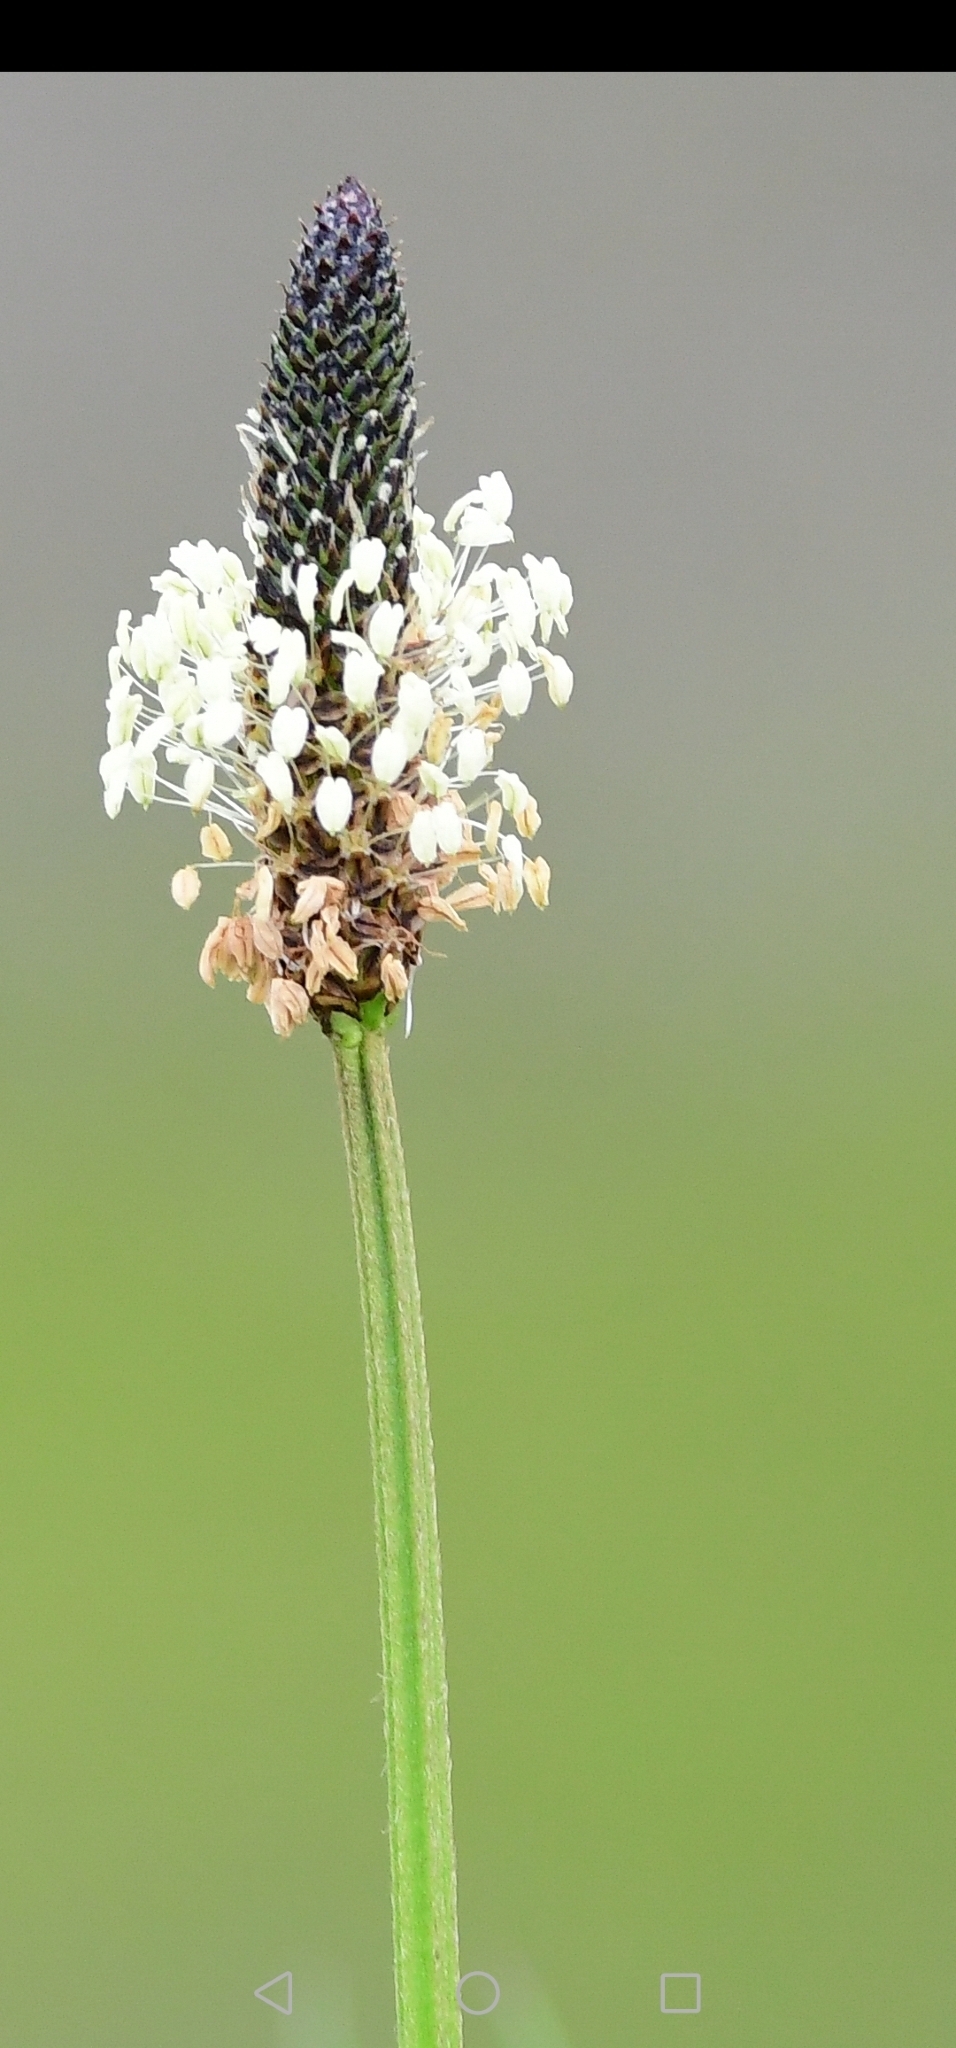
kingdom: Plantae
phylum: Tracheophyta
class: Magnoliopsida
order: Lamiales
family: Plantaginaceae
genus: Plantago
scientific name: Plantago lanceolata
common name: Ribwort plantain
